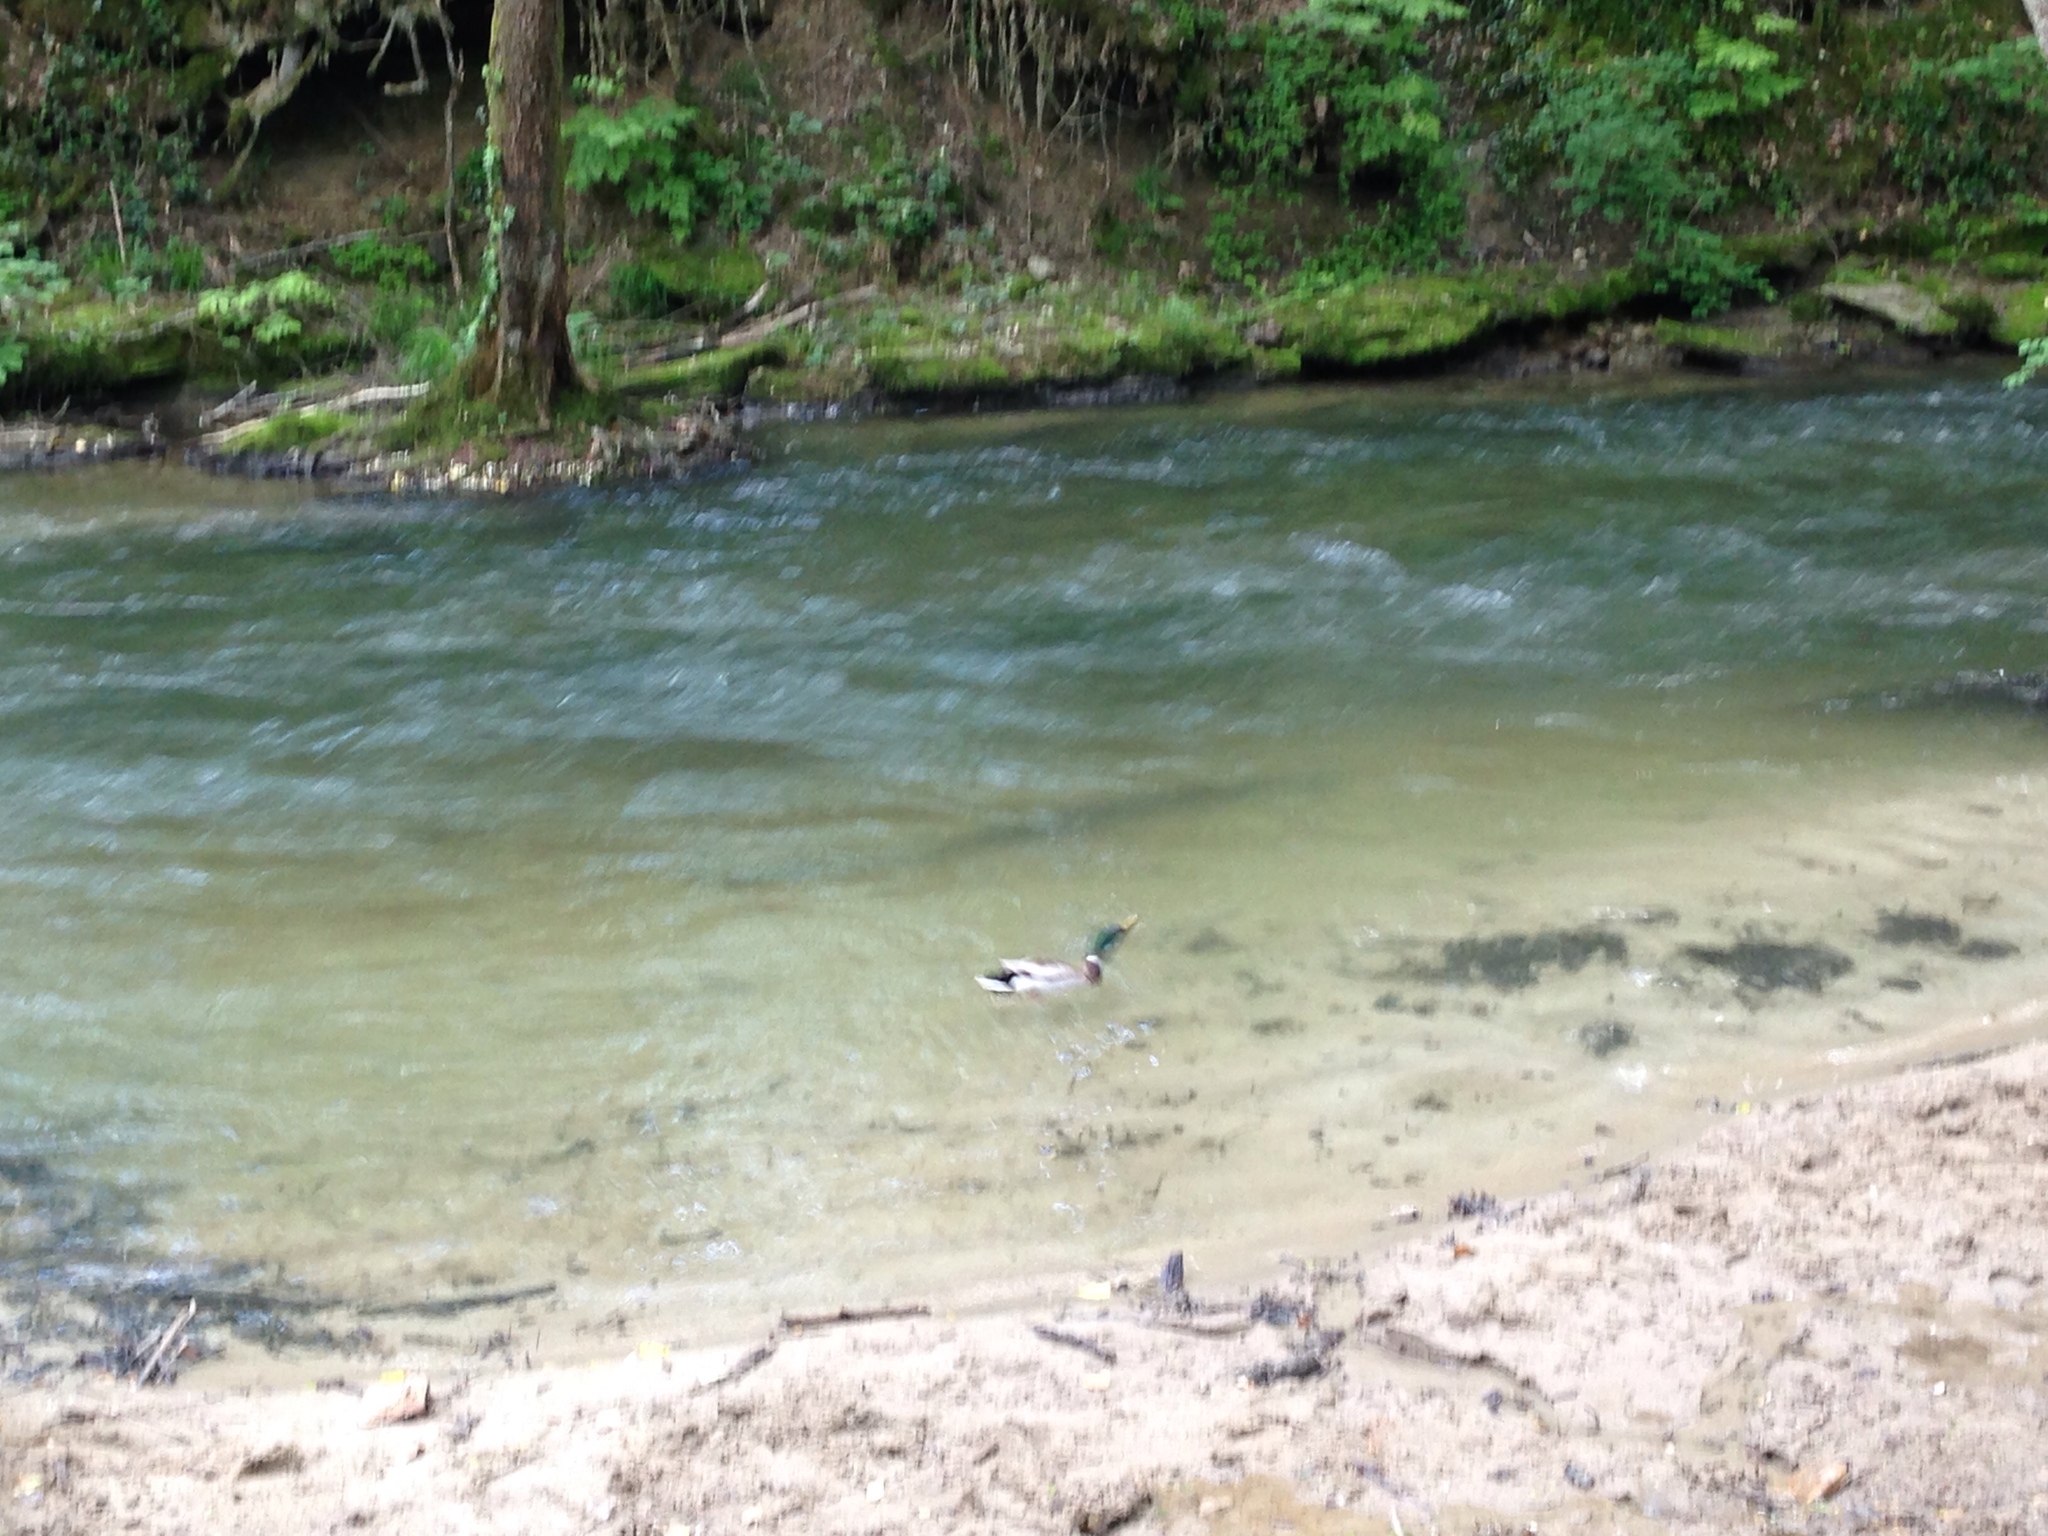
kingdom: Animalia
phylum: Chordata
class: Aves
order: Anseriformes
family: Anatidae
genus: Anas
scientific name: Anas platyrhynchos
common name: Mallard
